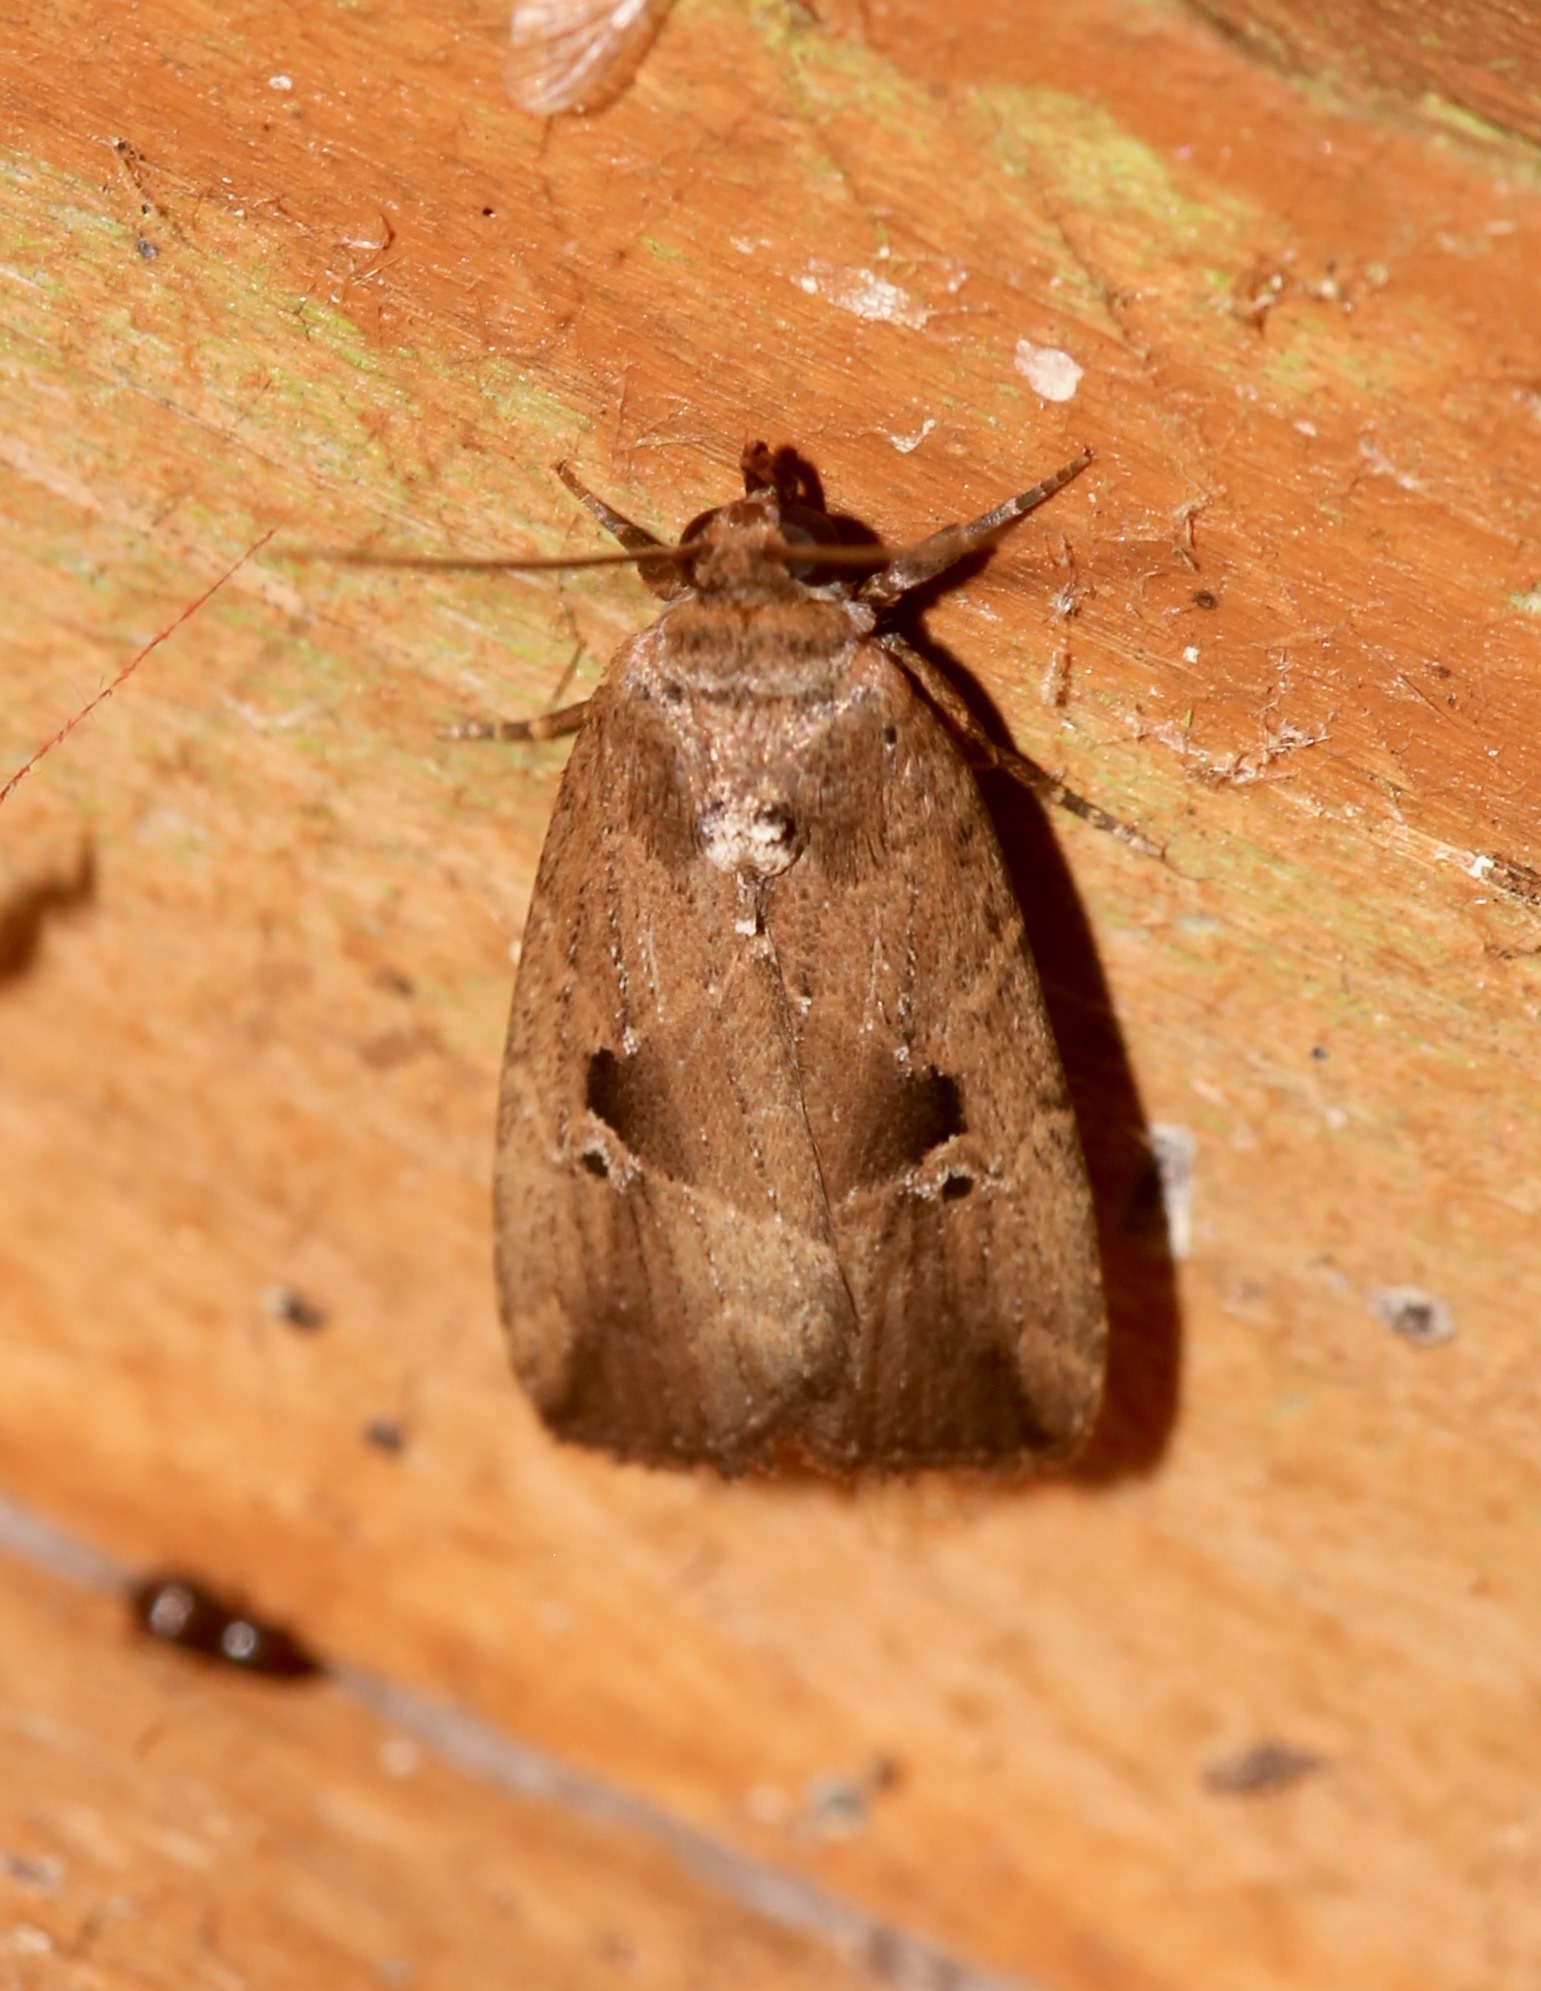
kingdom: Animalia
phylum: Arthropoda
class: Insecta
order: Lepidoptera
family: Noctuidae
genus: Elaphria
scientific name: Elaphria nucicolora
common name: Sugarcane midget moth
